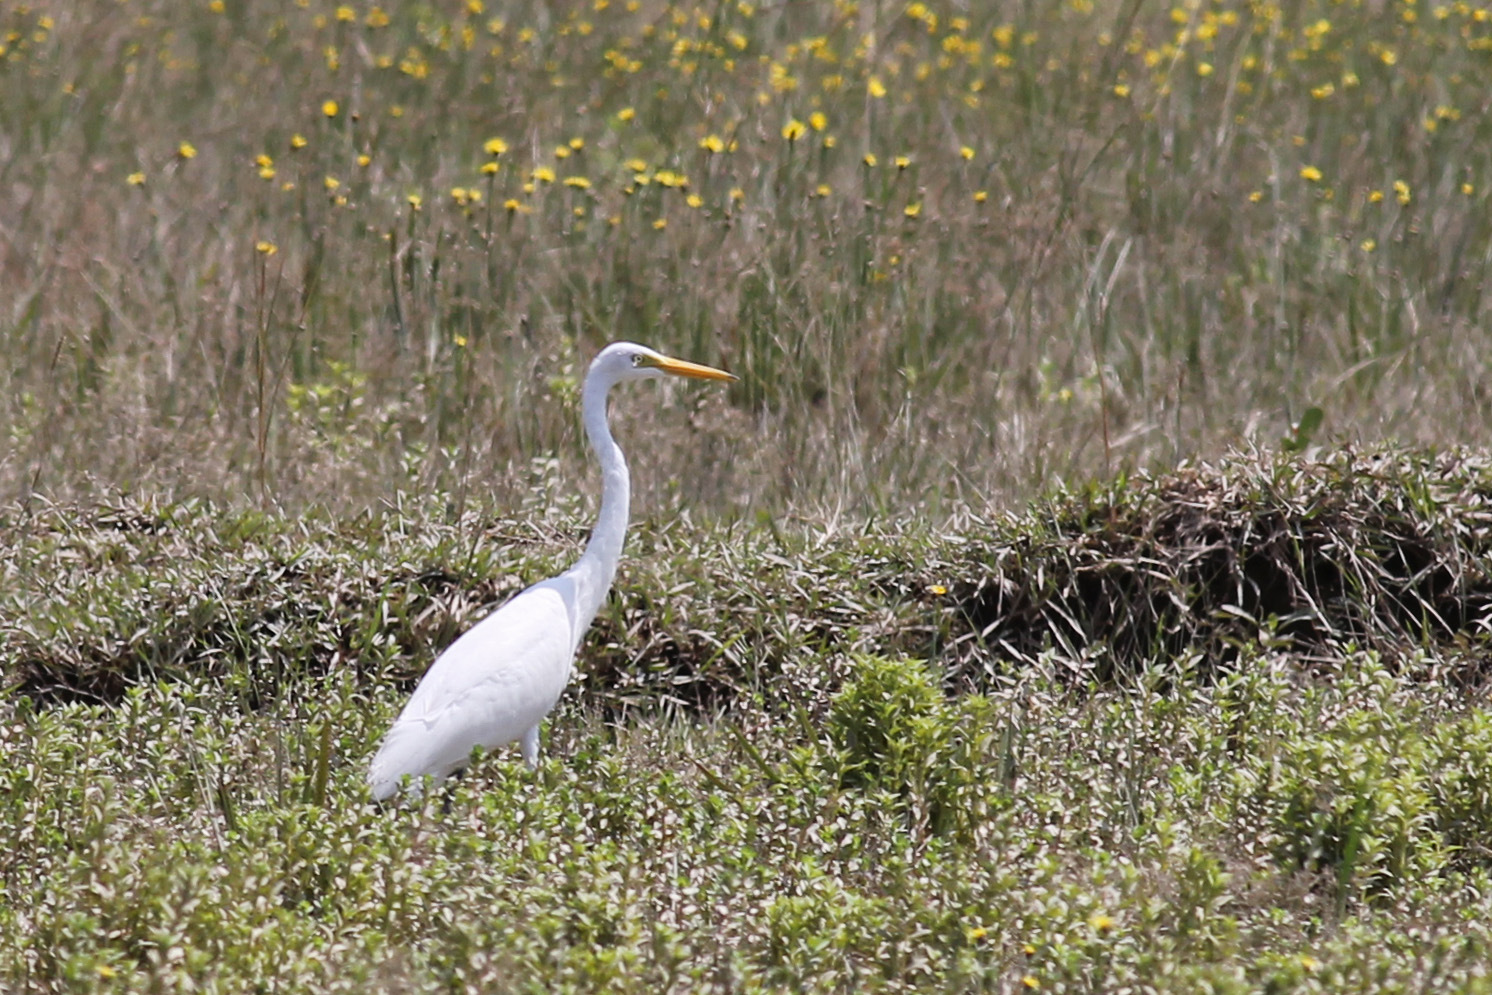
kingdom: Animalia
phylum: Chordata
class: Aves
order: Pelecaniformes
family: Ardeidae
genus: Egretta
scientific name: Egretta intermedia
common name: Intermediate egret
